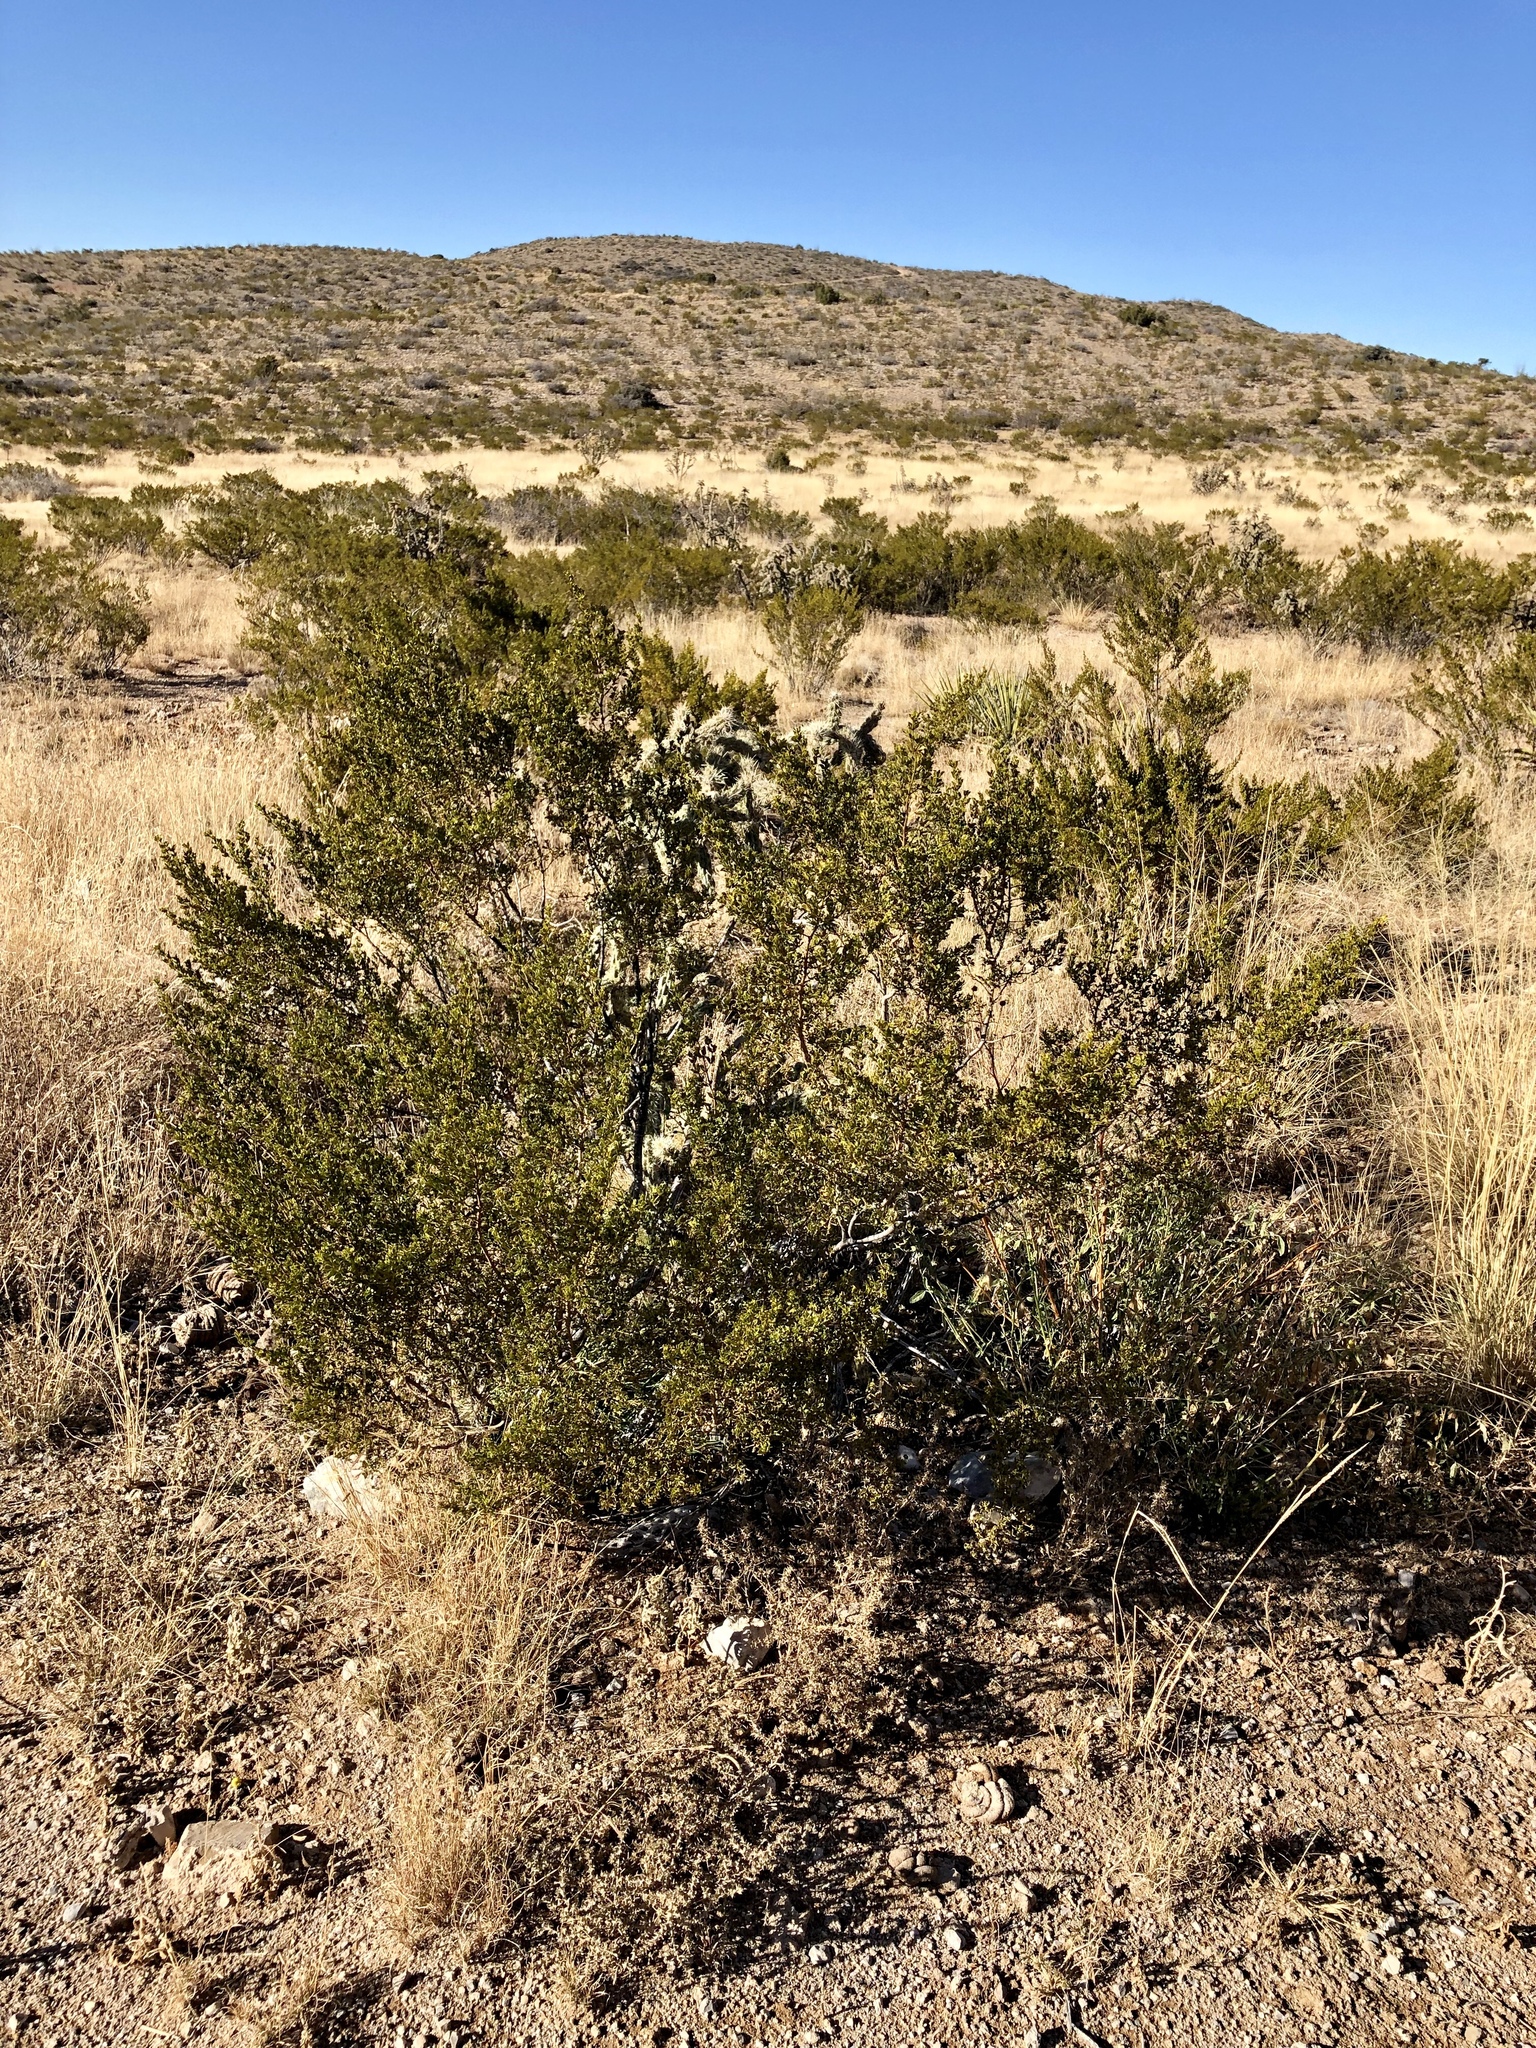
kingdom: Plantae
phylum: Tracheophyta
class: Magnoliopsida
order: Zygophyllales
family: Zygophyllaceae
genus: Larrea
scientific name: Larrea tridentata
